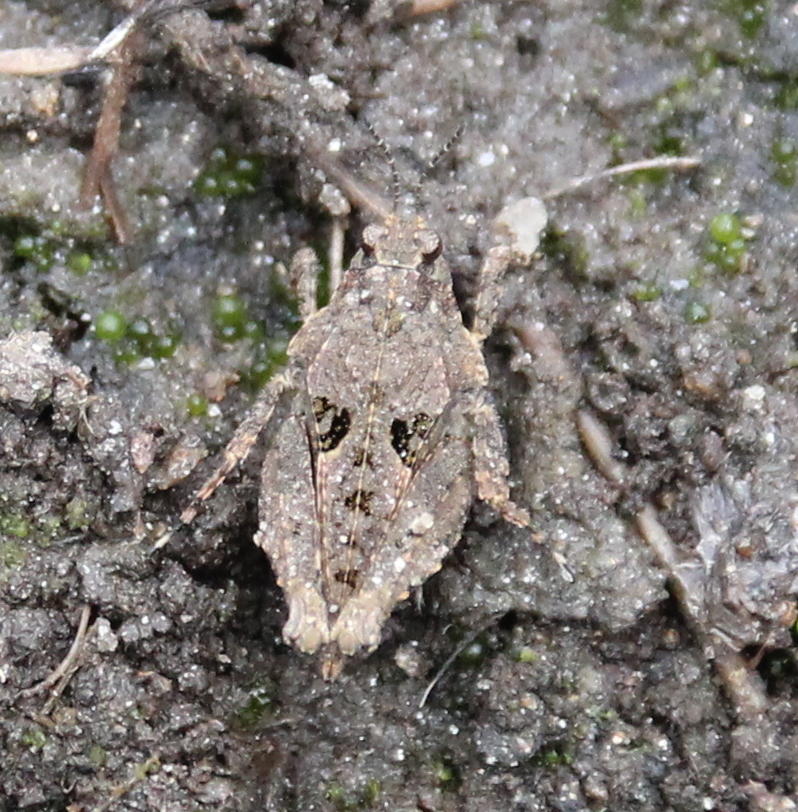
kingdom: Animalia
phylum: Arthropoda
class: Insecta
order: Orthoptera
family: Tetrigidae
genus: Paratettix
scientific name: Paratettix mexicanus
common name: Mexican pygmy grasshopper
